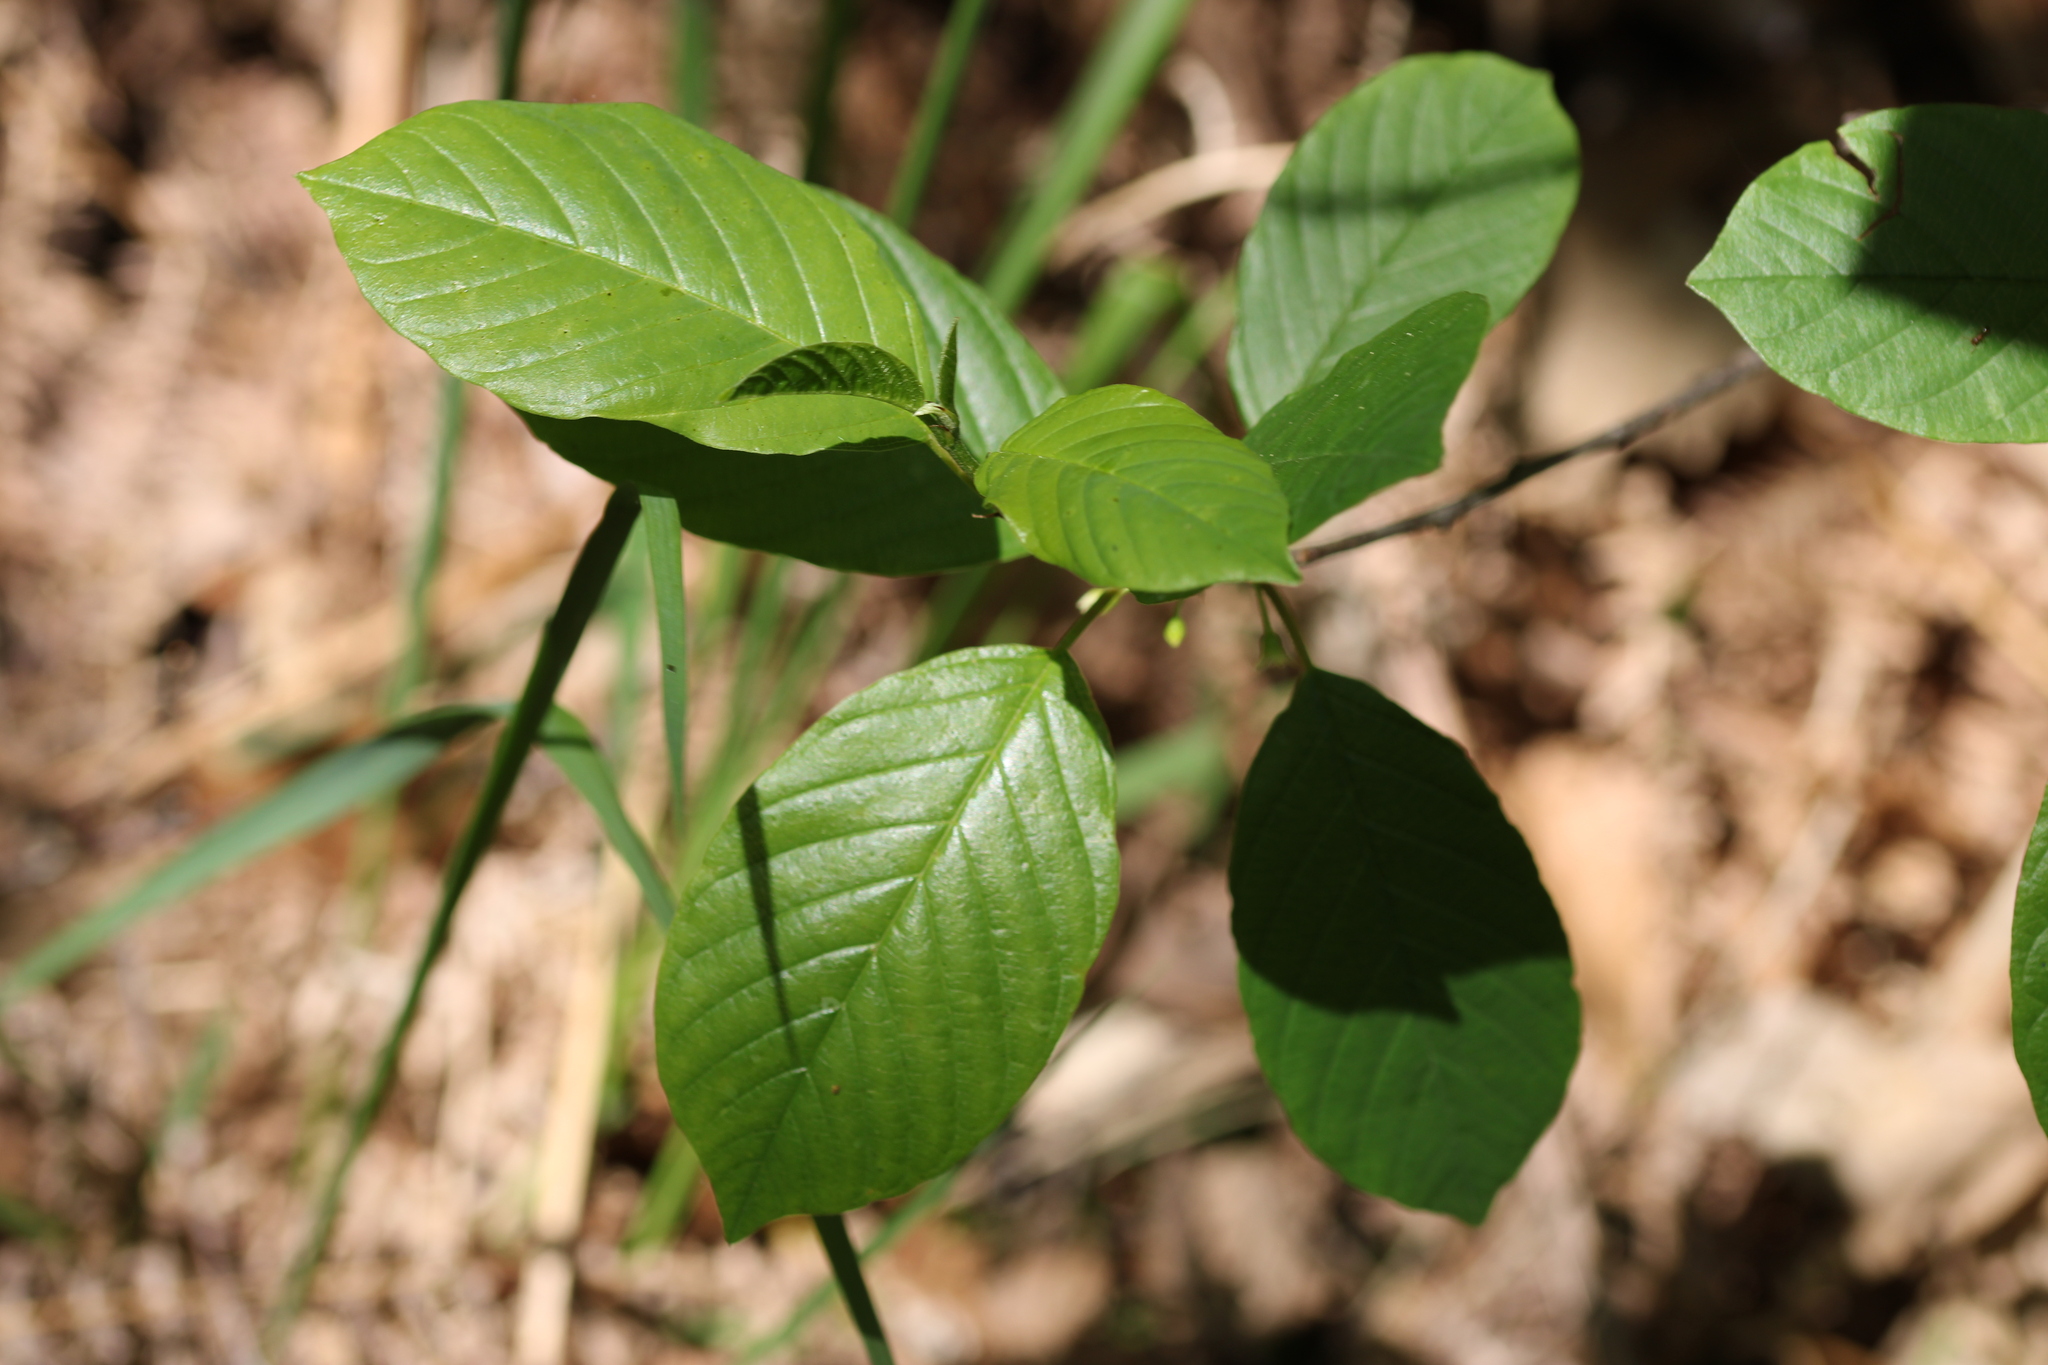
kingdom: Plantae
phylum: Tracheophyta
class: Magnoliopsida
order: Rosales
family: Rhamnaceae
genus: Frangula
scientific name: Frangula alnus
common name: Alder buckthorn
